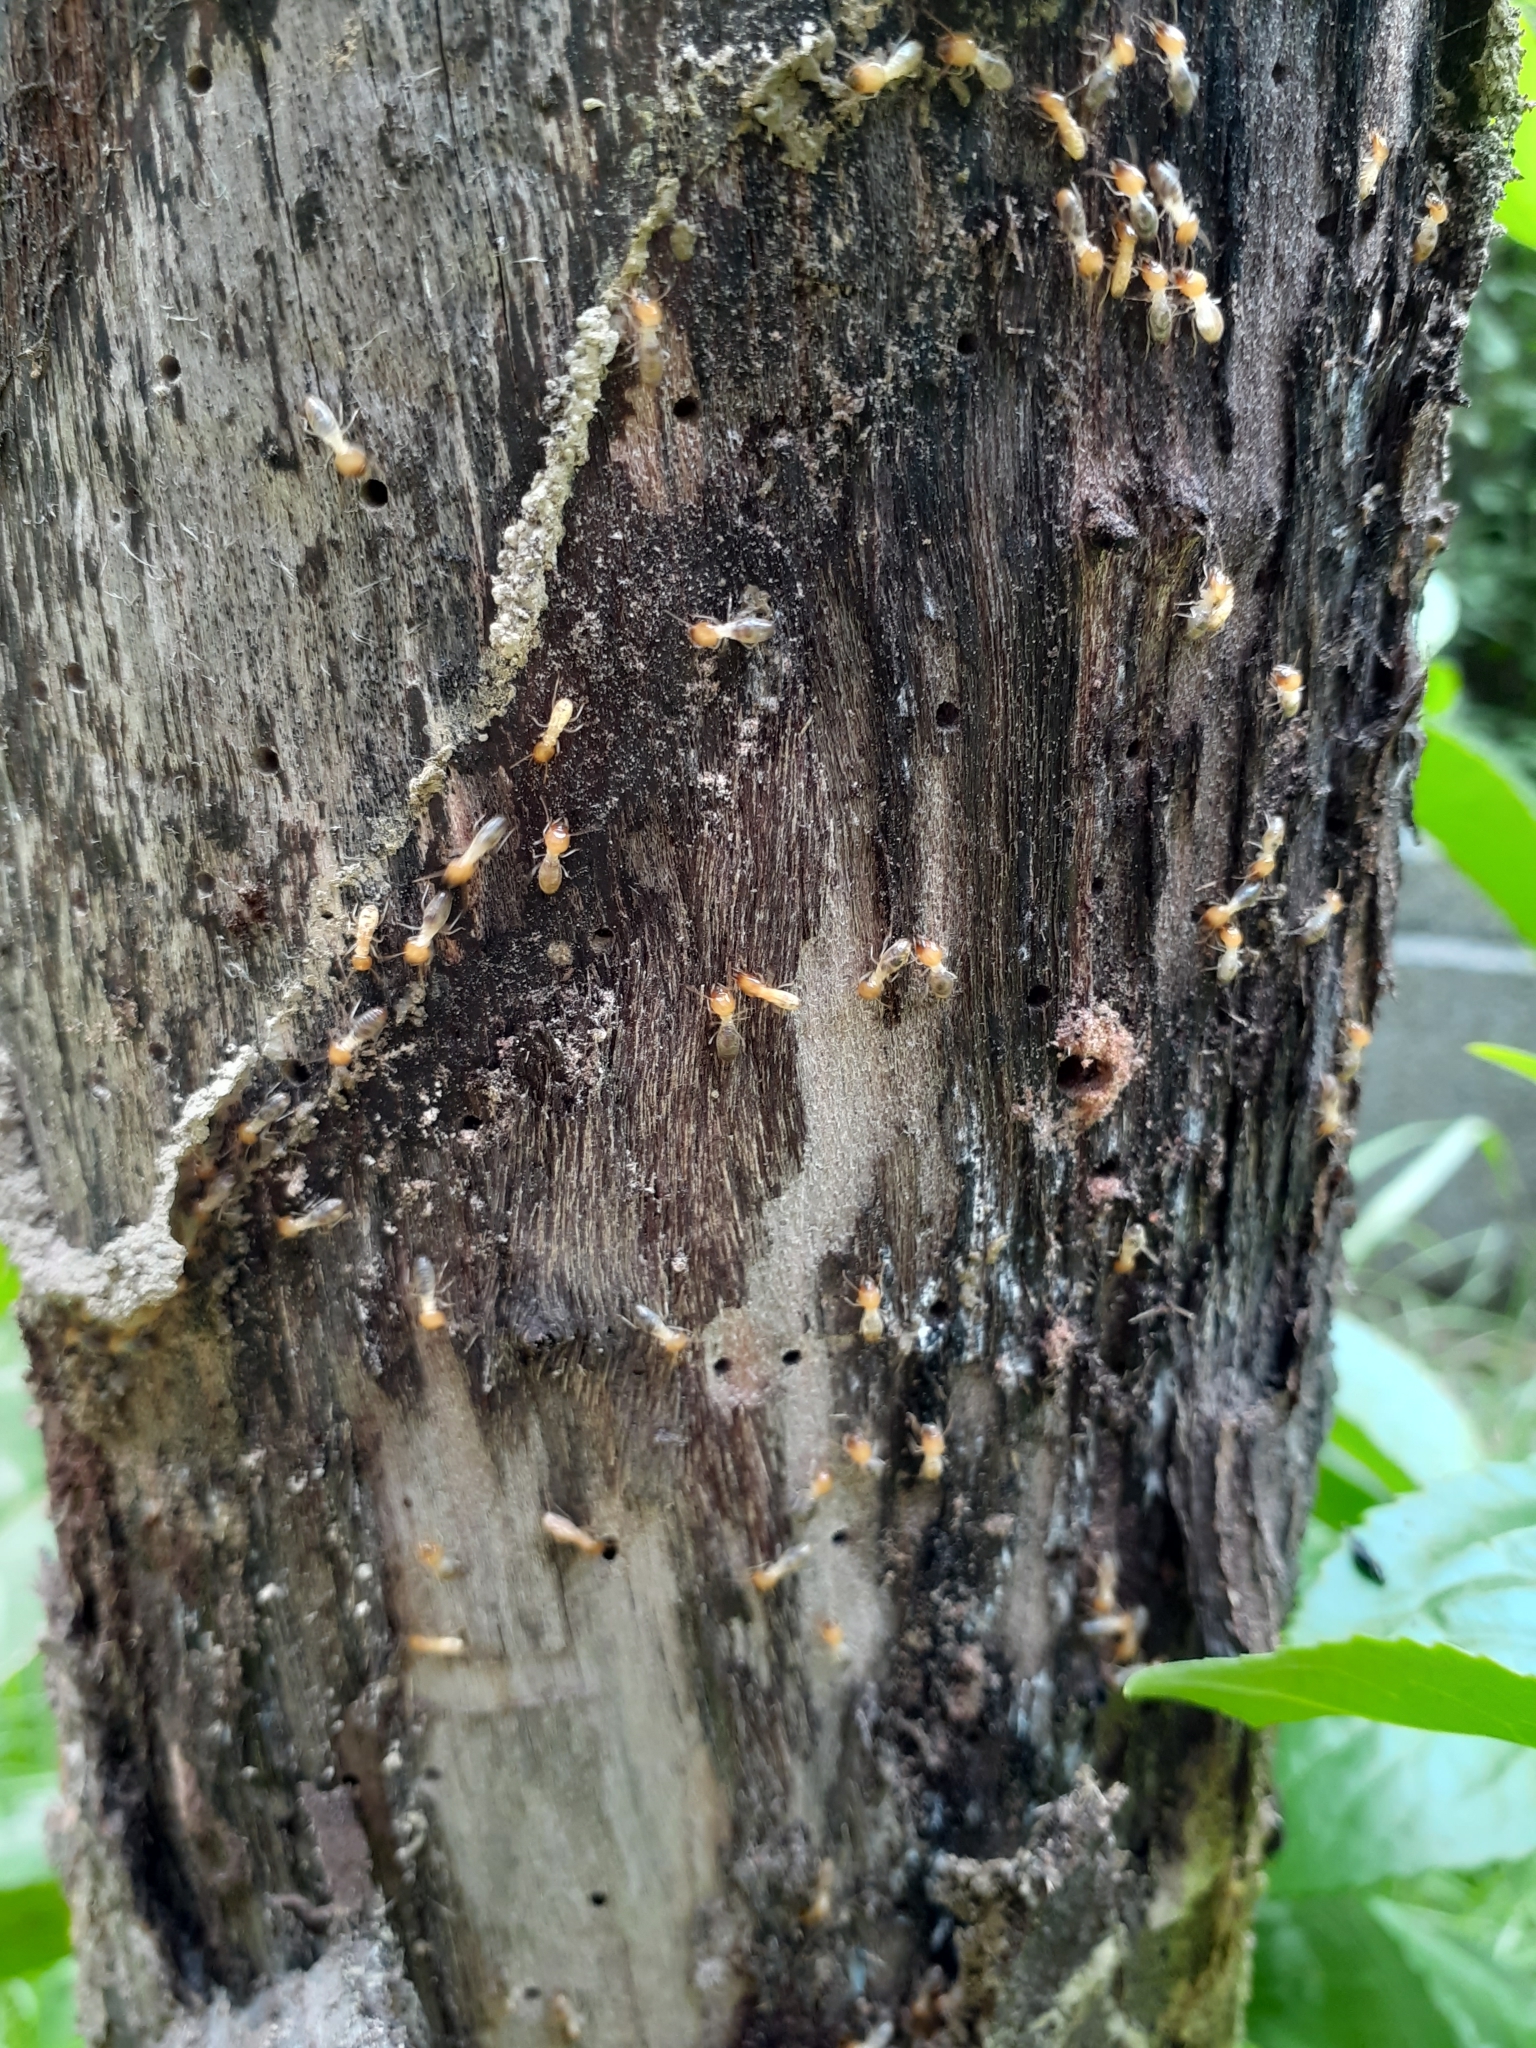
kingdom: Animalia
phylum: Arthropoda
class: Insecta
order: Blattodea
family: Termitidae
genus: Odontotermes
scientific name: Odontotermes formosanus
